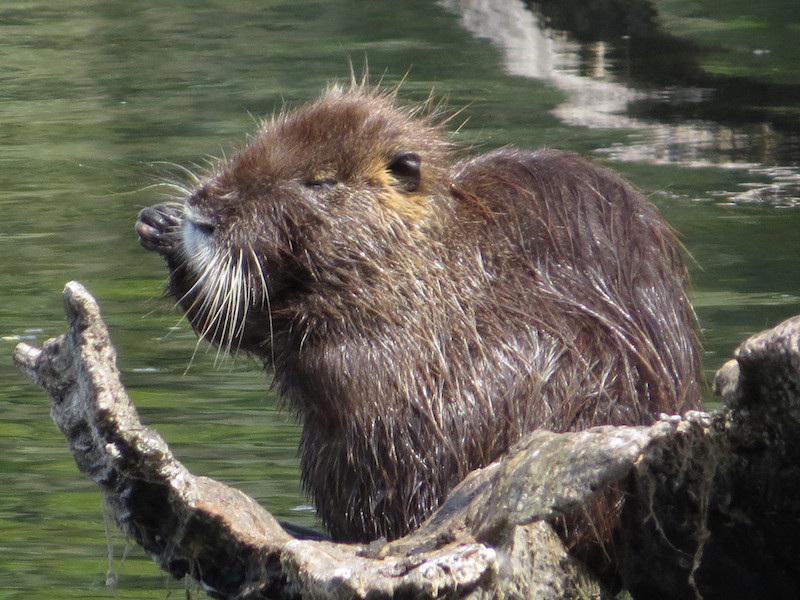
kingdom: Animalia
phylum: Chordata
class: Mammalia
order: Rodentia
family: Myocastoridae
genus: Myocastor
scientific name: Myocastor coypus
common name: Coypu
